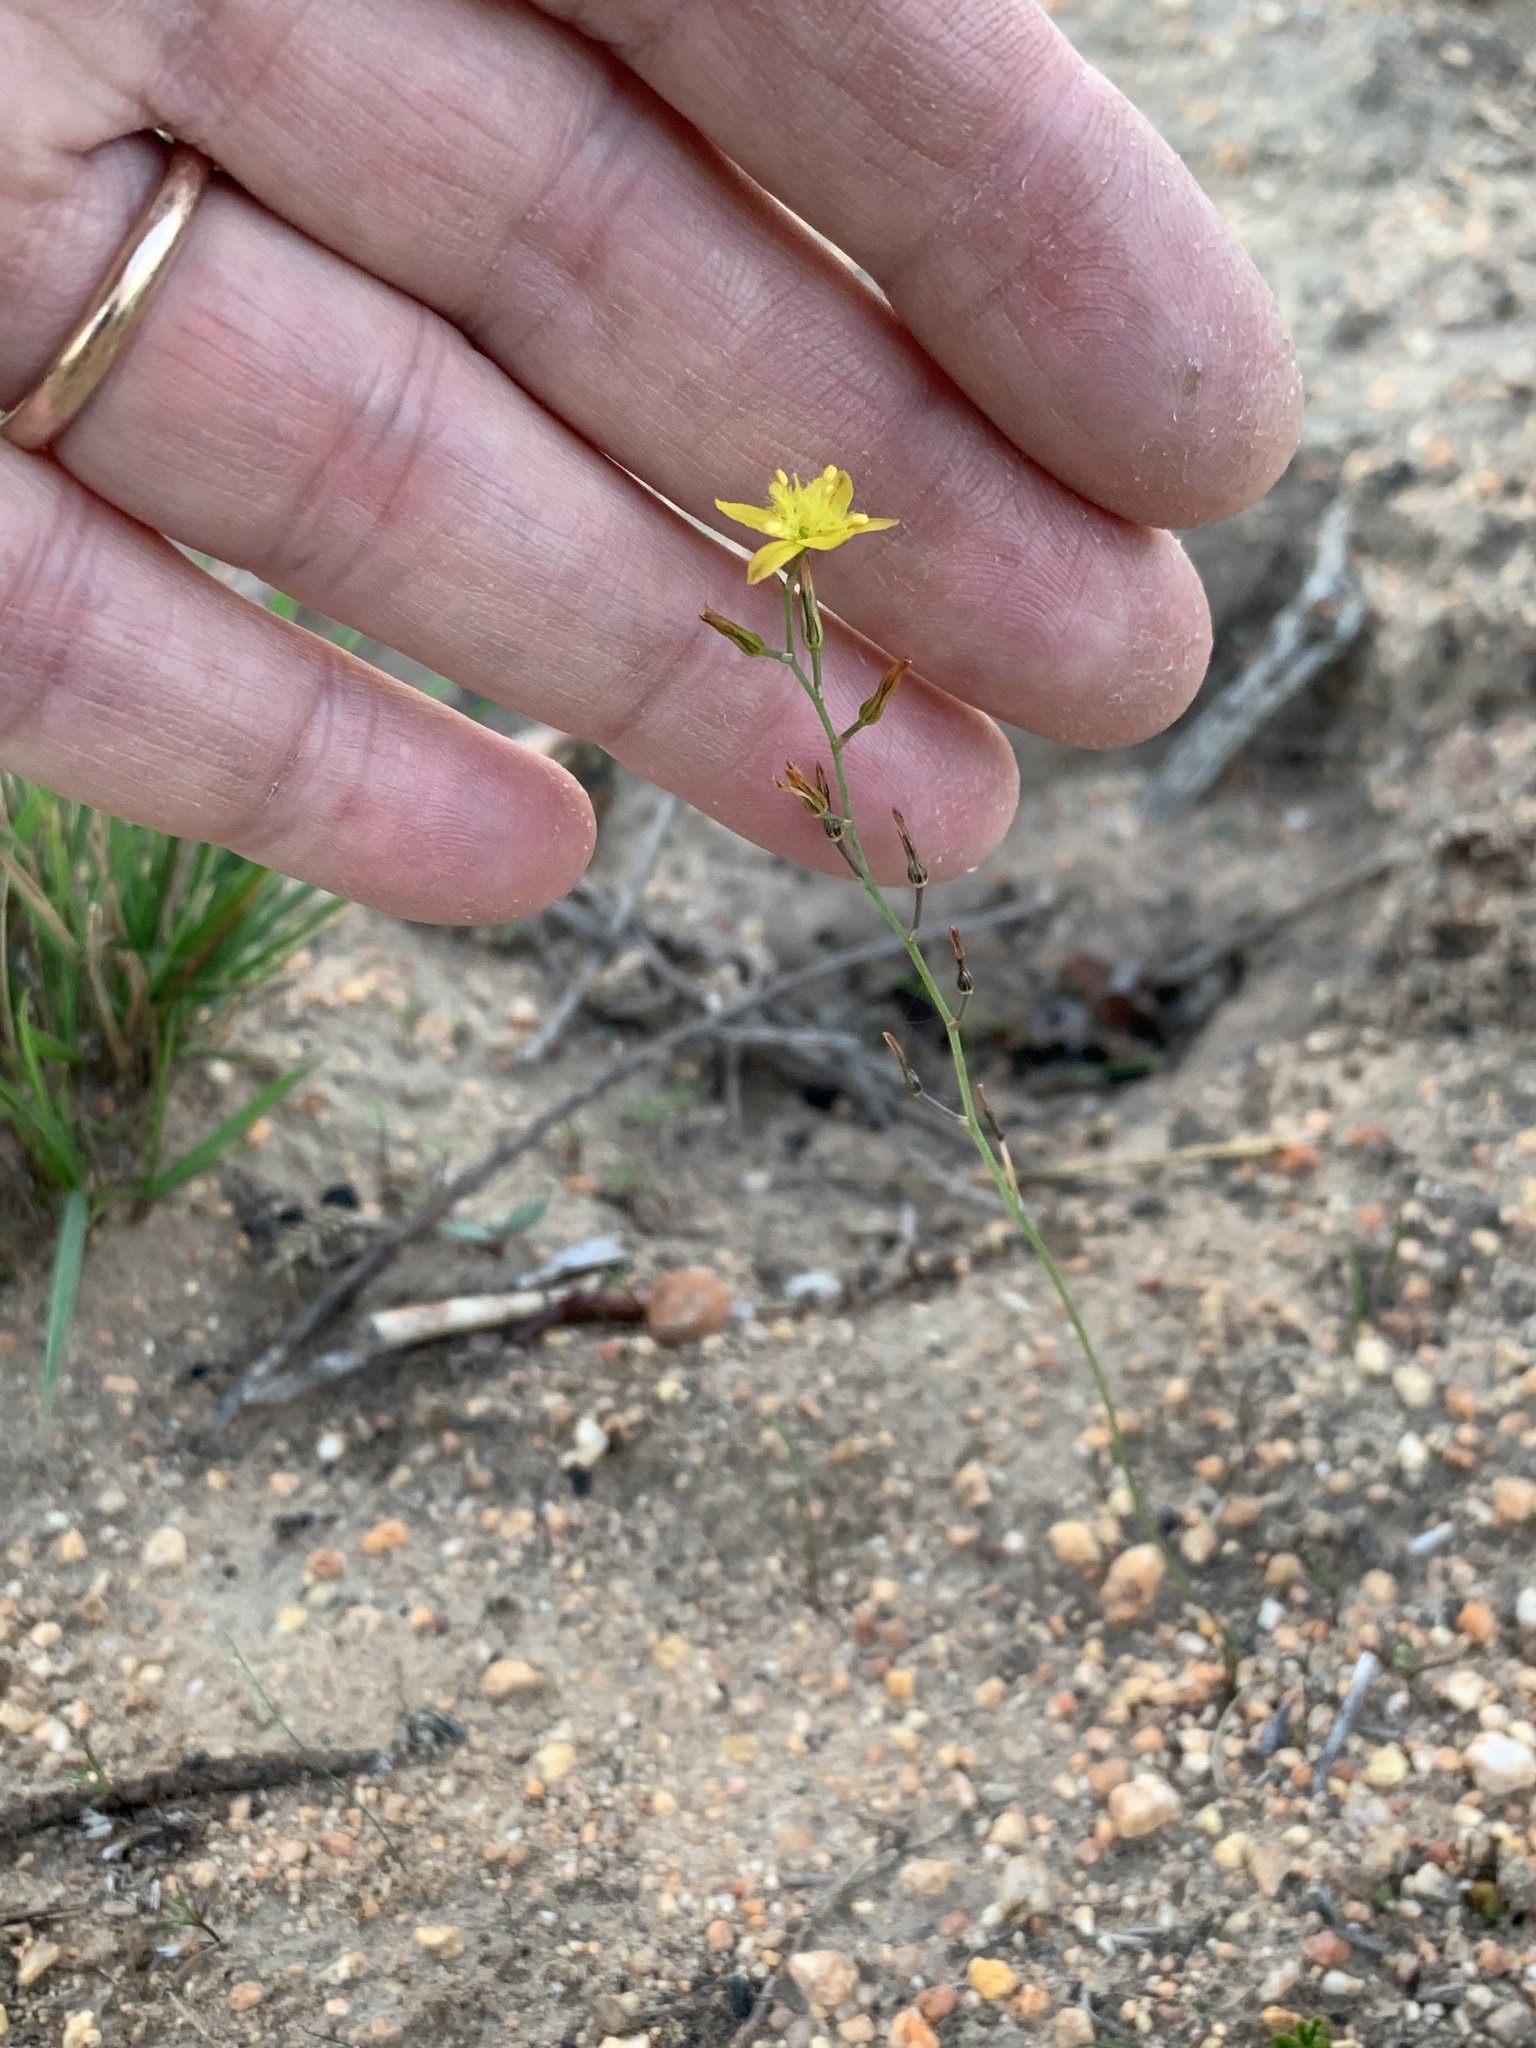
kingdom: Plantae
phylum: Tracheophyta
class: Liliopsida
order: Asparagales
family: Asphodelaceae
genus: Bulbine
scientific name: Bulbine favosa
